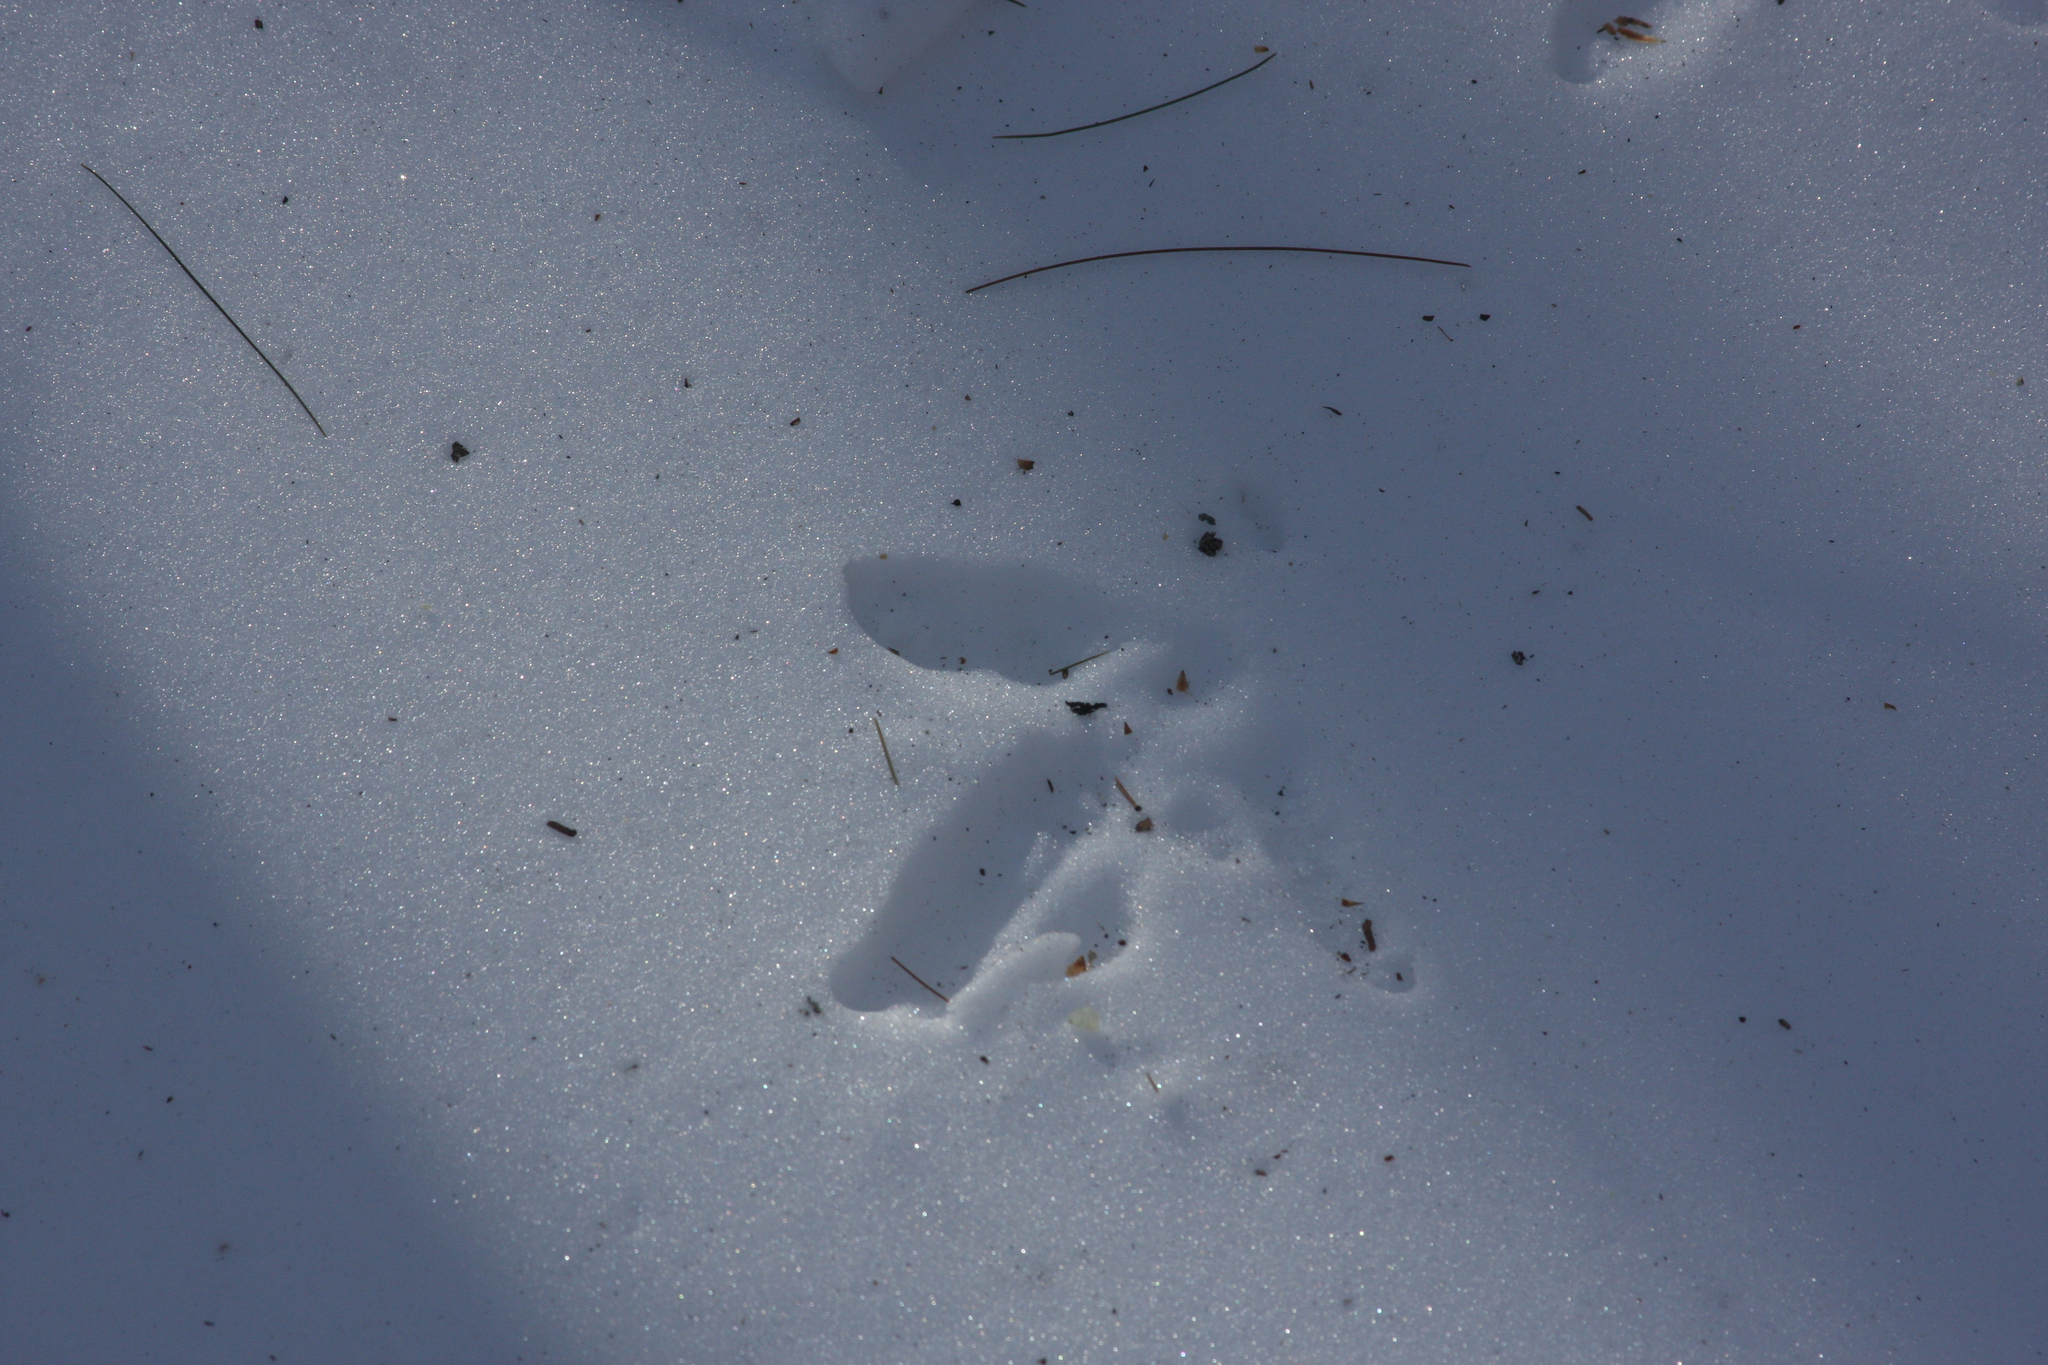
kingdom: Animalia
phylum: Chordata
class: Aves
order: Galliformes
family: Phasianidae
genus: Meleagris
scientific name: Meleagris gallopavo
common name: Wild turkey
